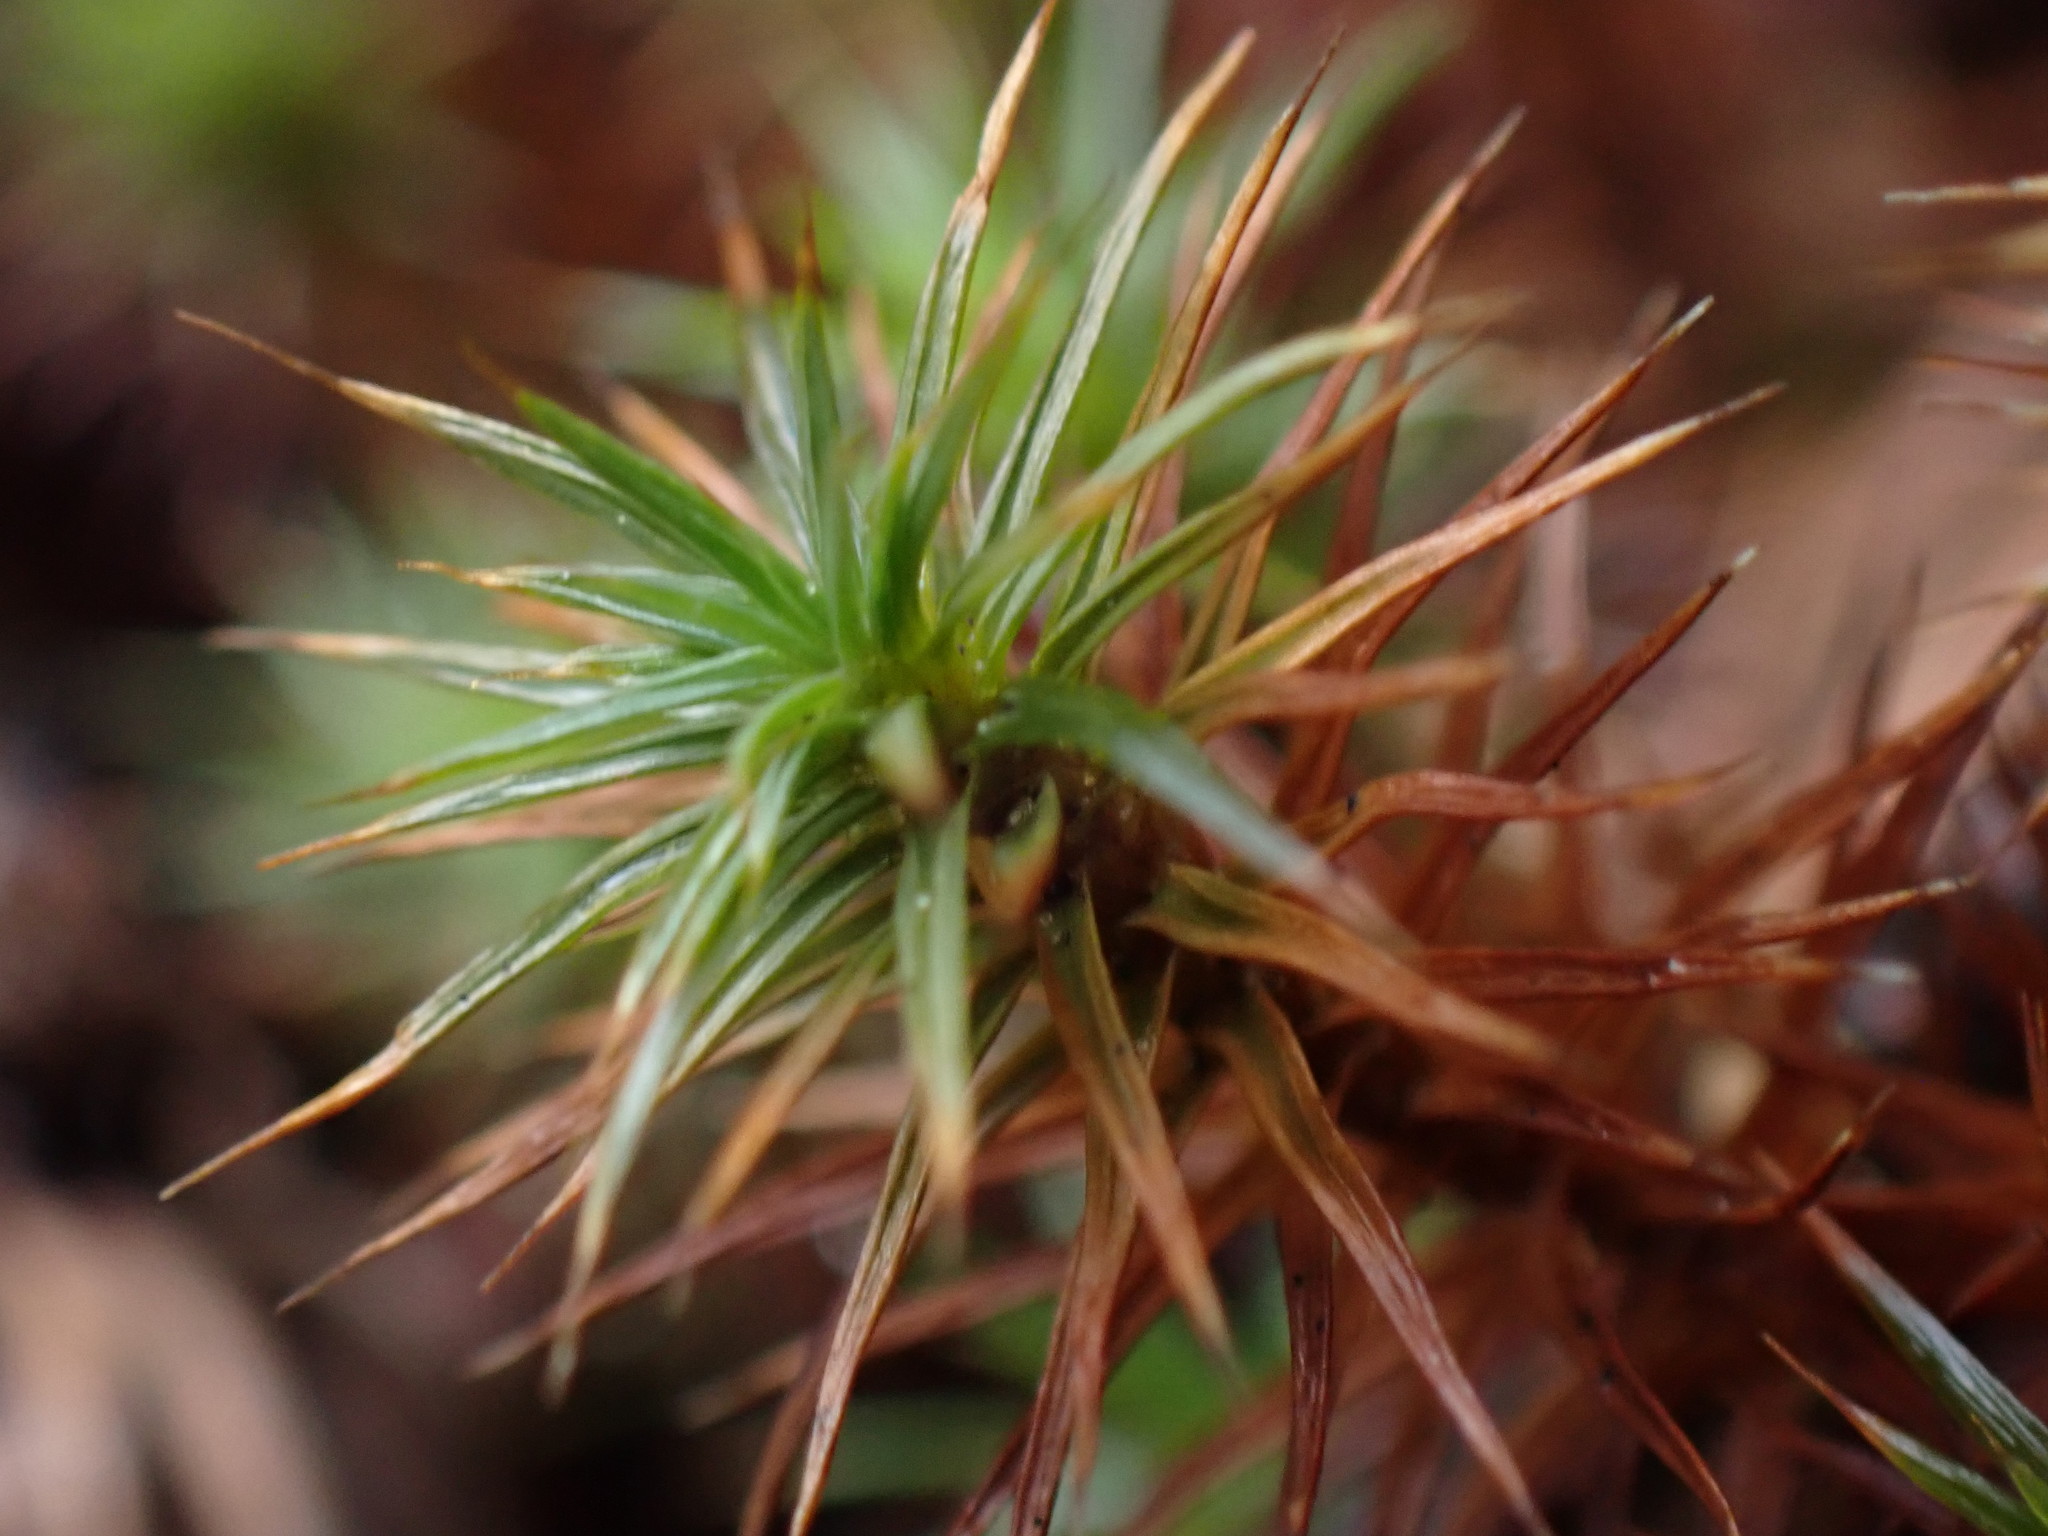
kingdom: Plantae
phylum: Bryophyta
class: Polytrichopsida
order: Polytrichales
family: Polytrichaceae
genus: Polytrichum
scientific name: Polytrichum juniperinum
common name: Juniper haircap moss
